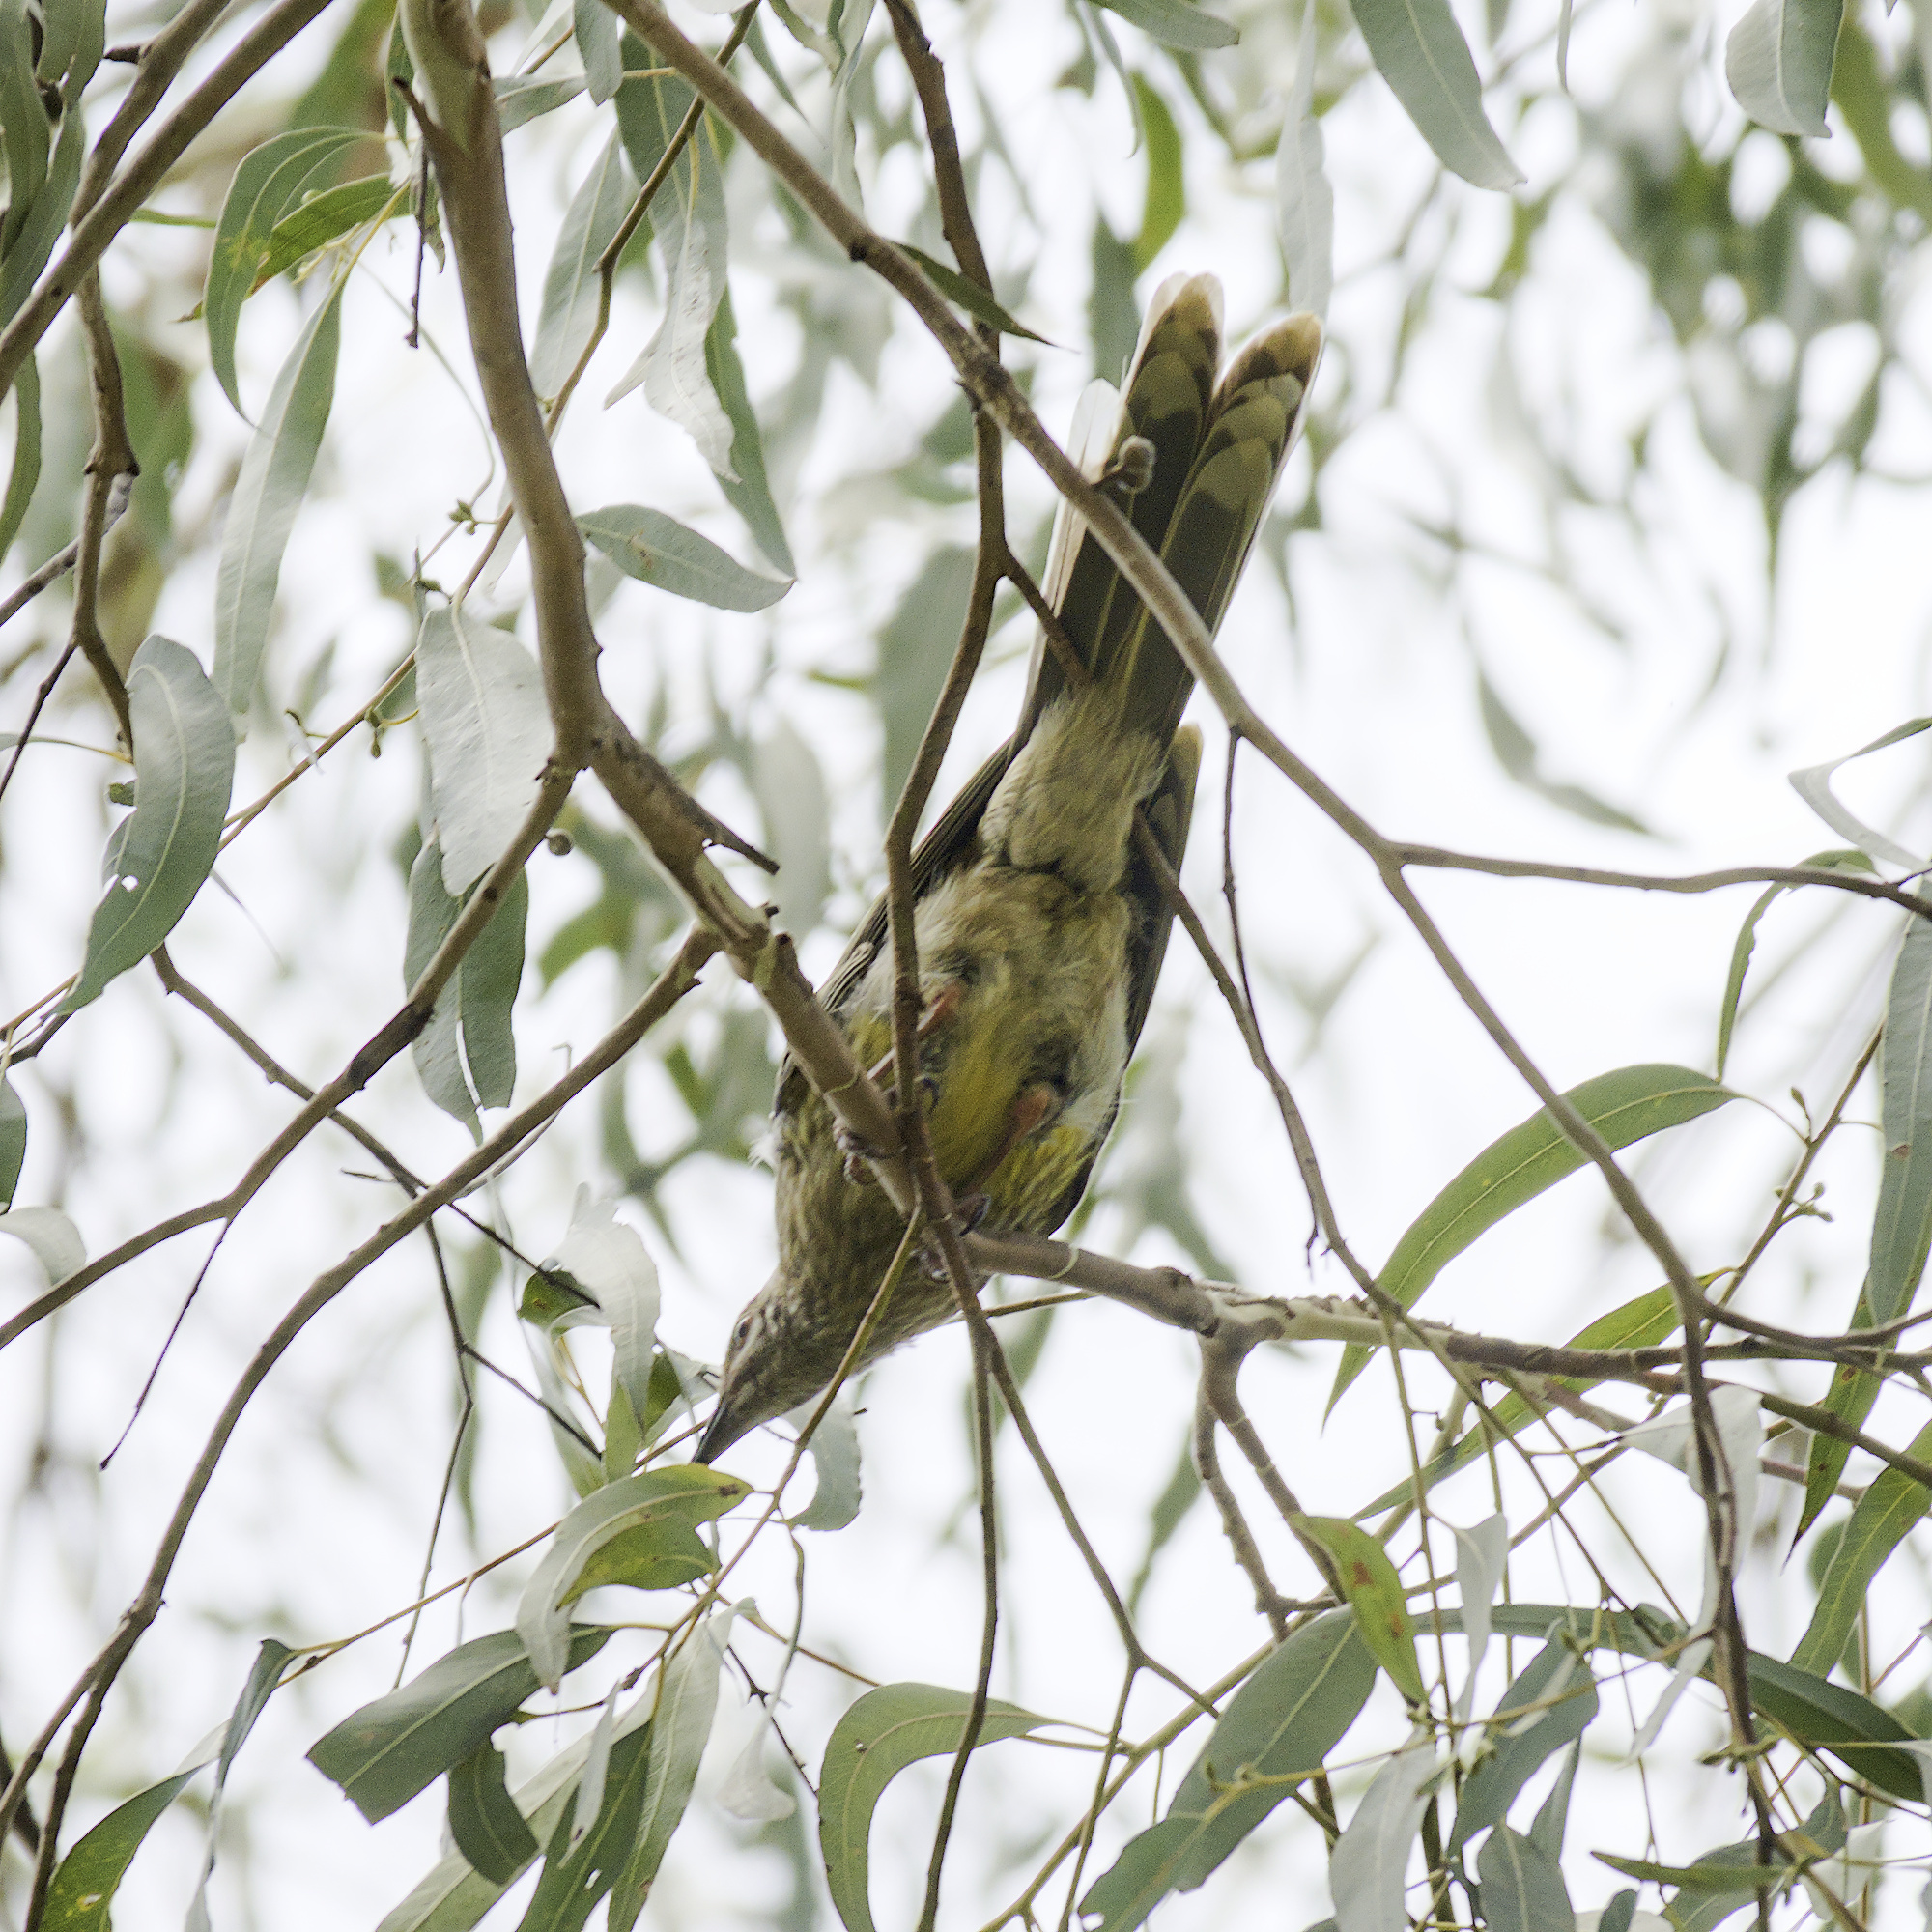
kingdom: Animalia
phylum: Chordata
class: Aves
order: Passeriformes
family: Meliphagidae
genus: Anthochaera
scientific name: Anthochaera carunculata
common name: Red wattlebird
